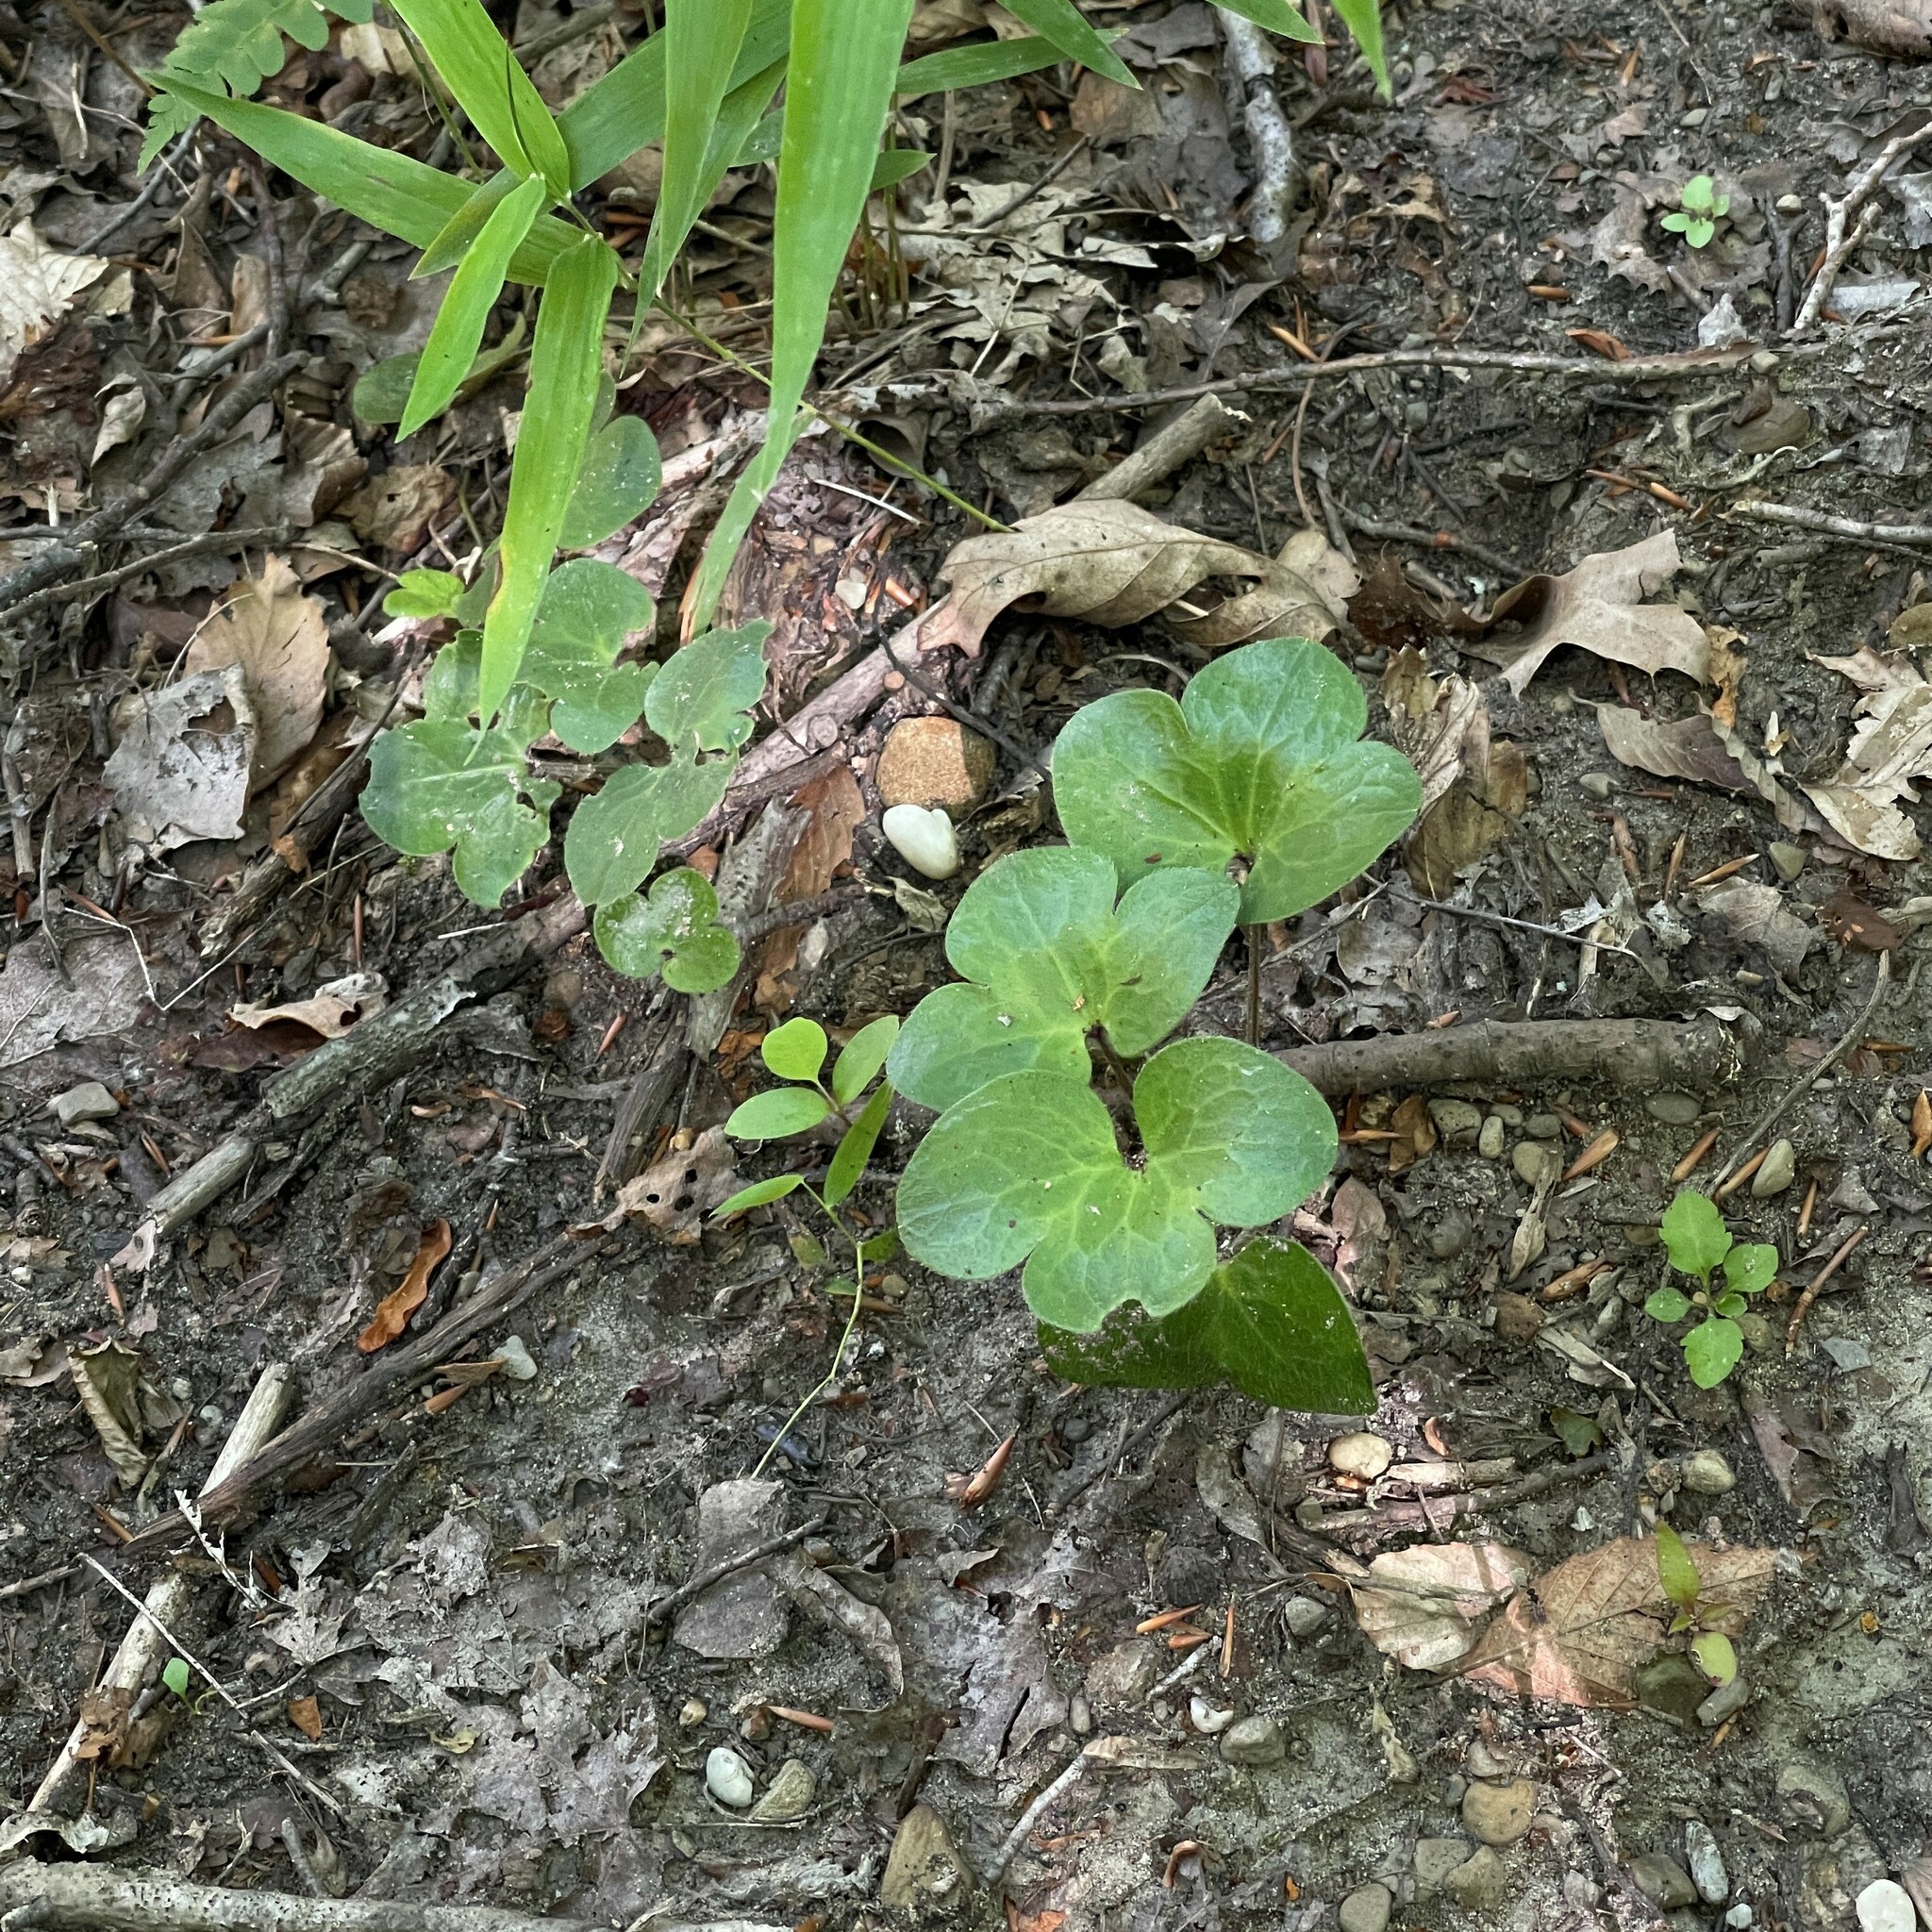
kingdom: Plantae
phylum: Tracheophyta
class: Magnoliopsida
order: Ranunculales
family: Ranunculaceae
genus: Hepatica
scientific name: Hepatica americana
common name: American hepatica
